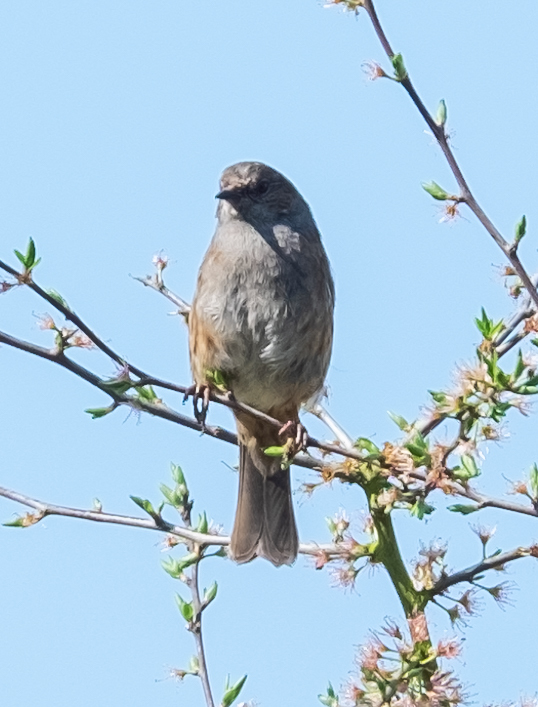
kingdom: Animalia
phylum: Chordata
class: Aves
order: Passeriformes
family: Prunellidae
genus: Prunella
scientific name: Prunella modularis
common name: Dunnock
